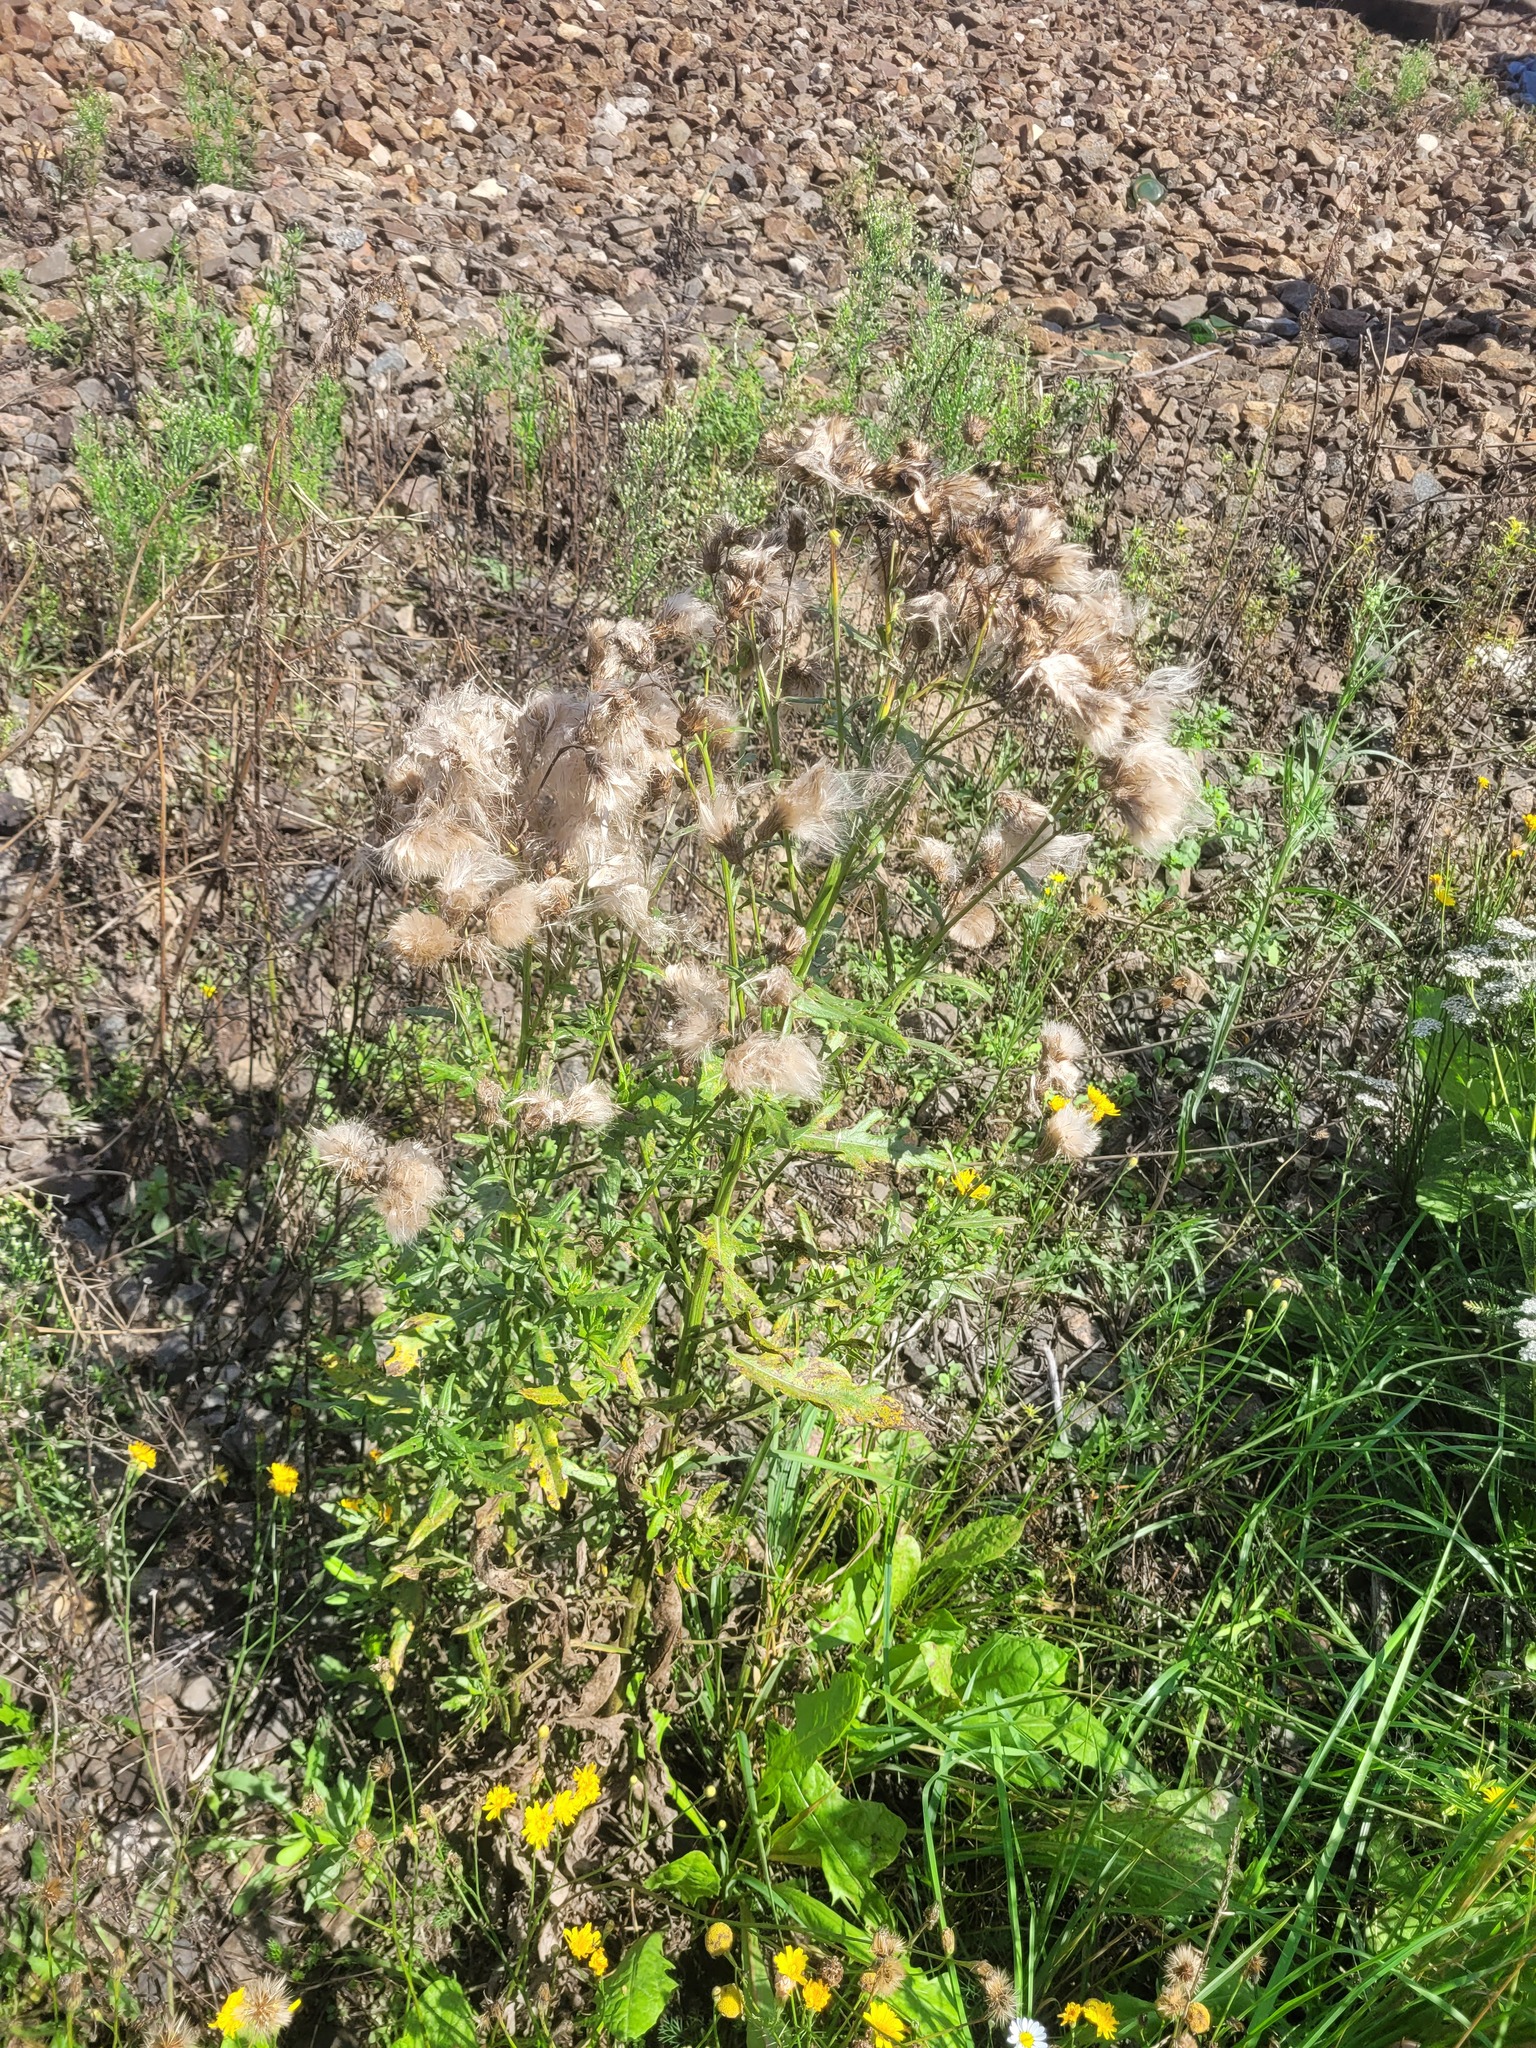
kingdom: Plantae
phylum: Tracheophyta
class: Magnoliopsida
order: Asterales
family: Asteraceae
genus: Cirsium
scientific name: Cirsium arvense
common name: Creeping thistle
